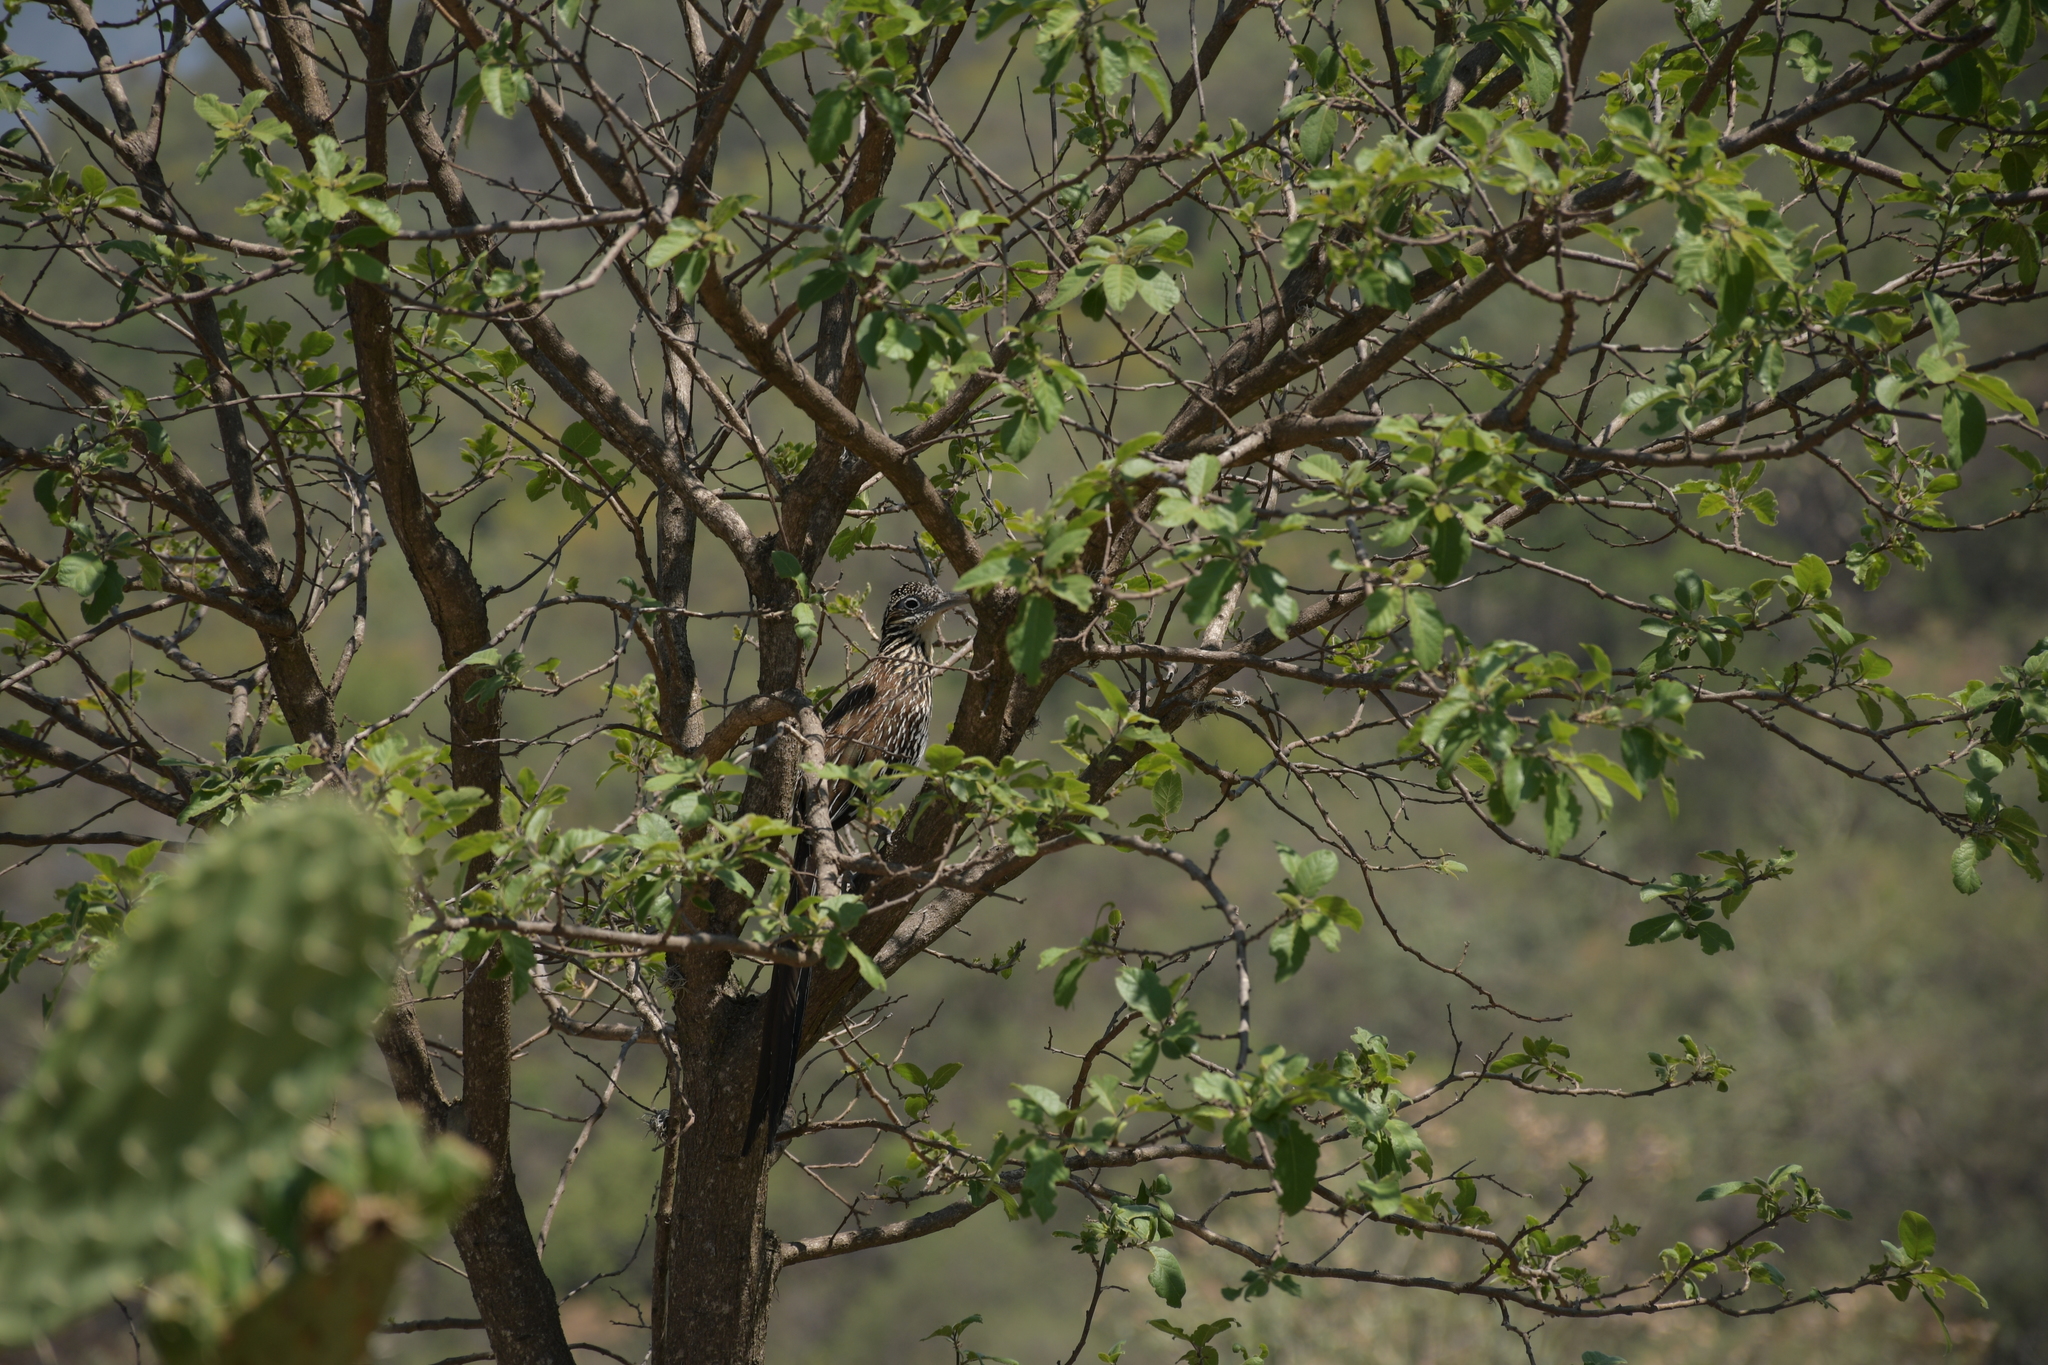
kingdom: Animalia
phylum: Chordata
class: Aves
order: Cuculiformes
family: Cuculidae
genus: Geococcyx
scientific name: Geococcyx velox
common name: Lesser roadrunner
